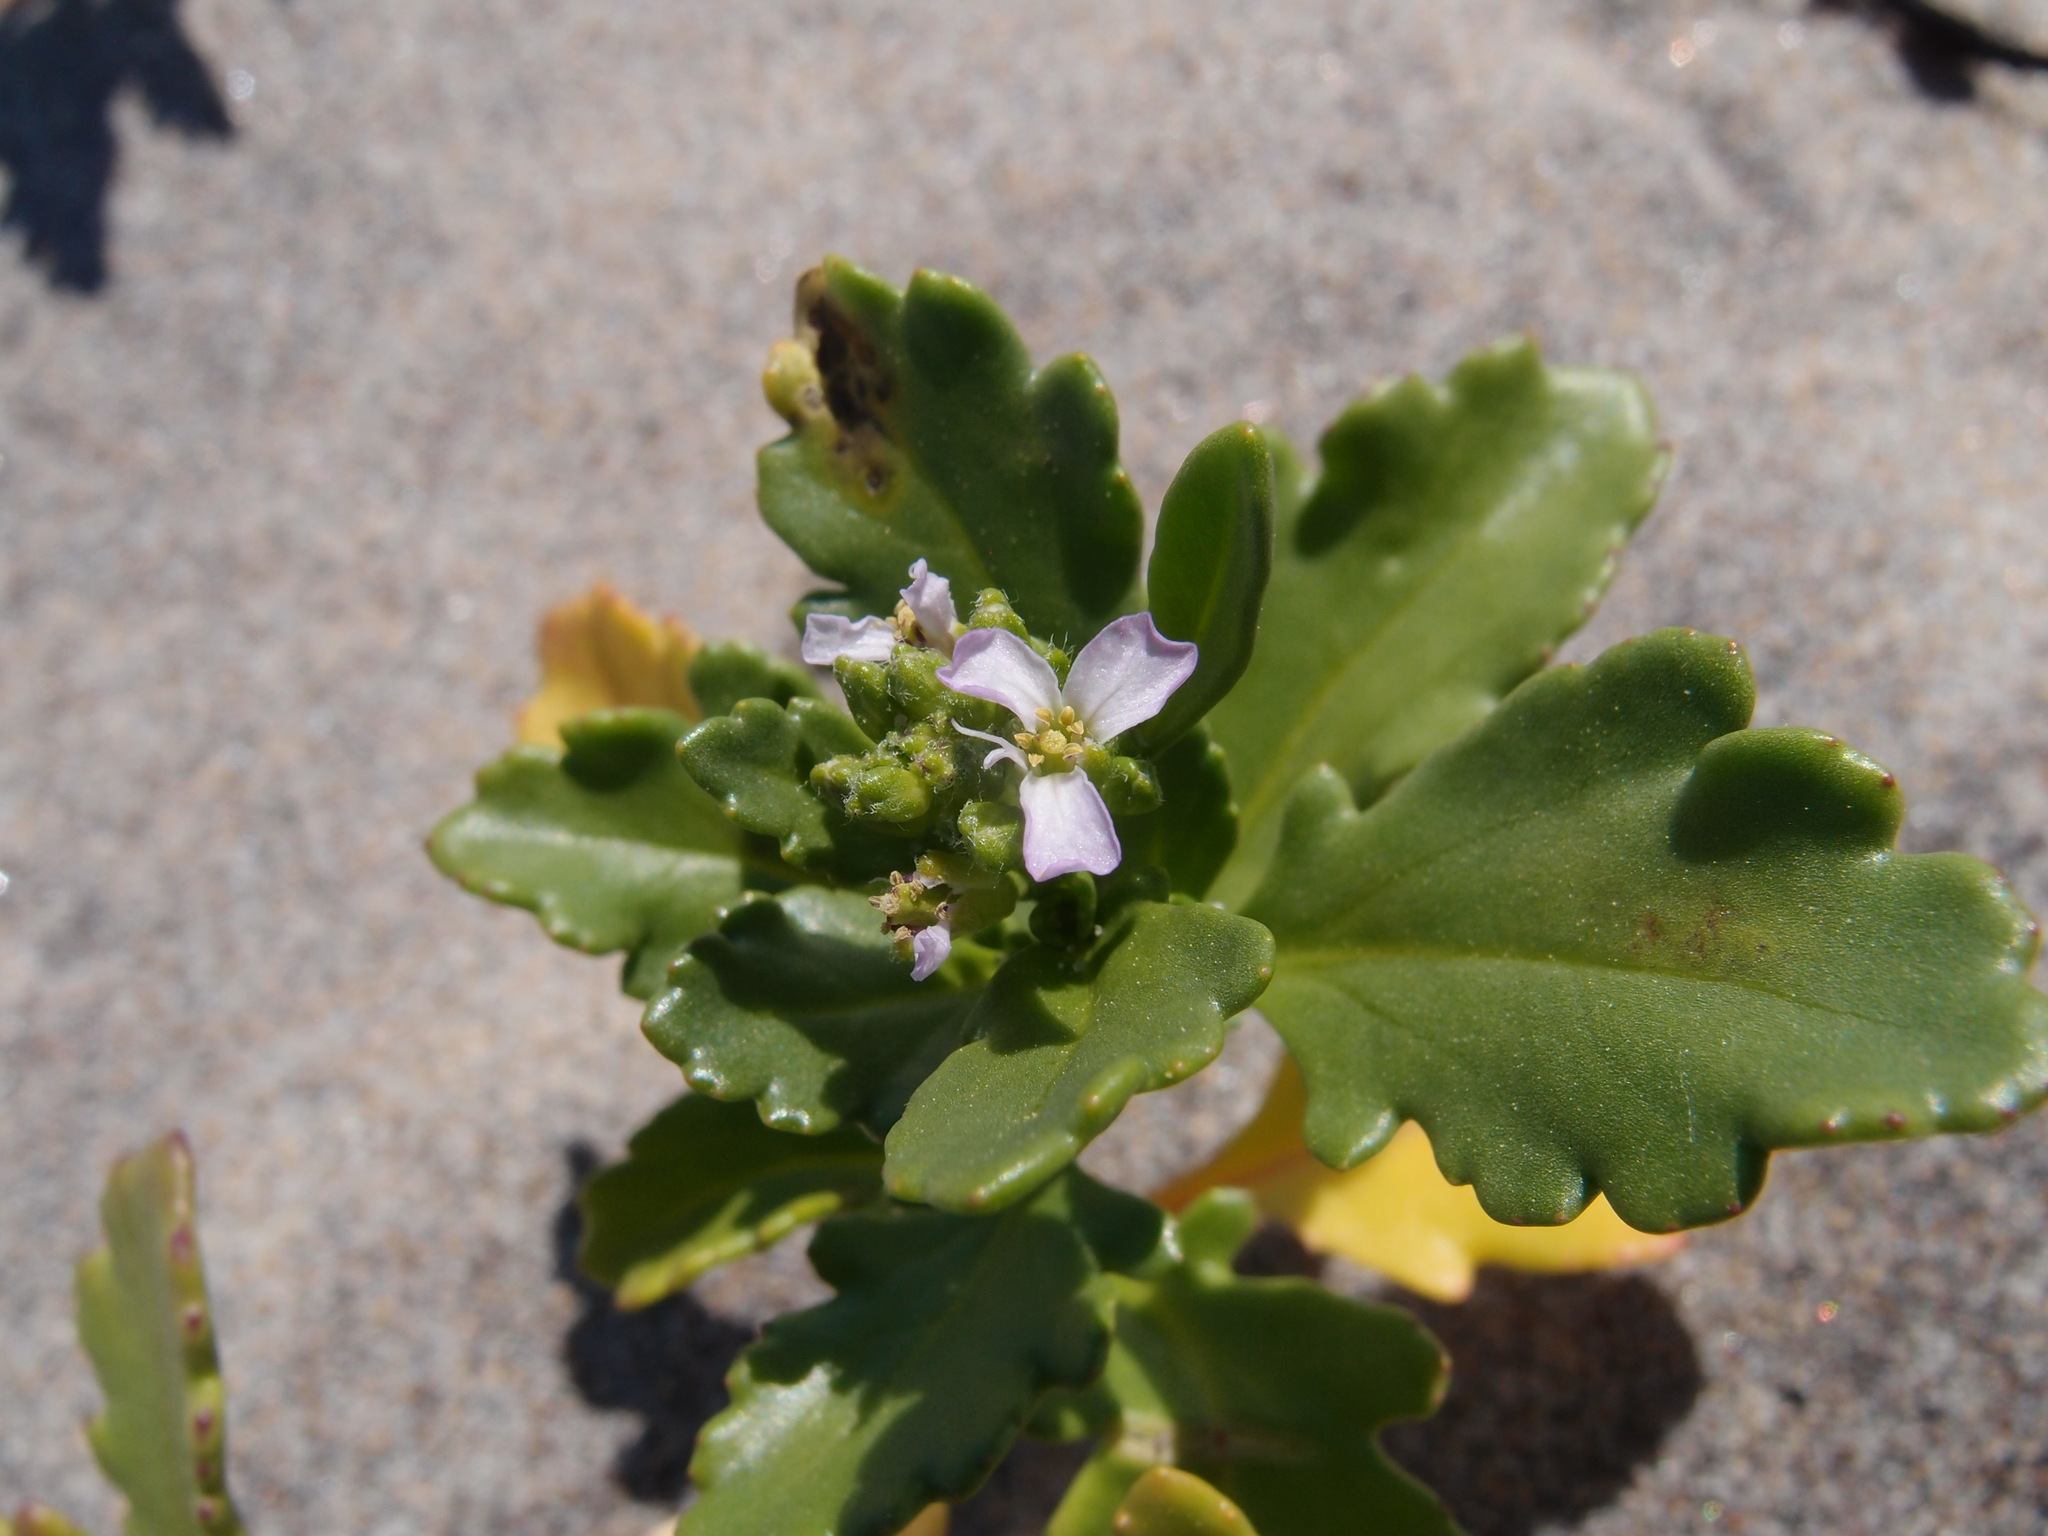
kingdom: Plantae
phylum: Tracheophyta
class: Magnoliopsida
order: Brassicales
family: Brassicaceae
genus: Cakile
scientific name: Cakile edentula
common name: American sea rocket
